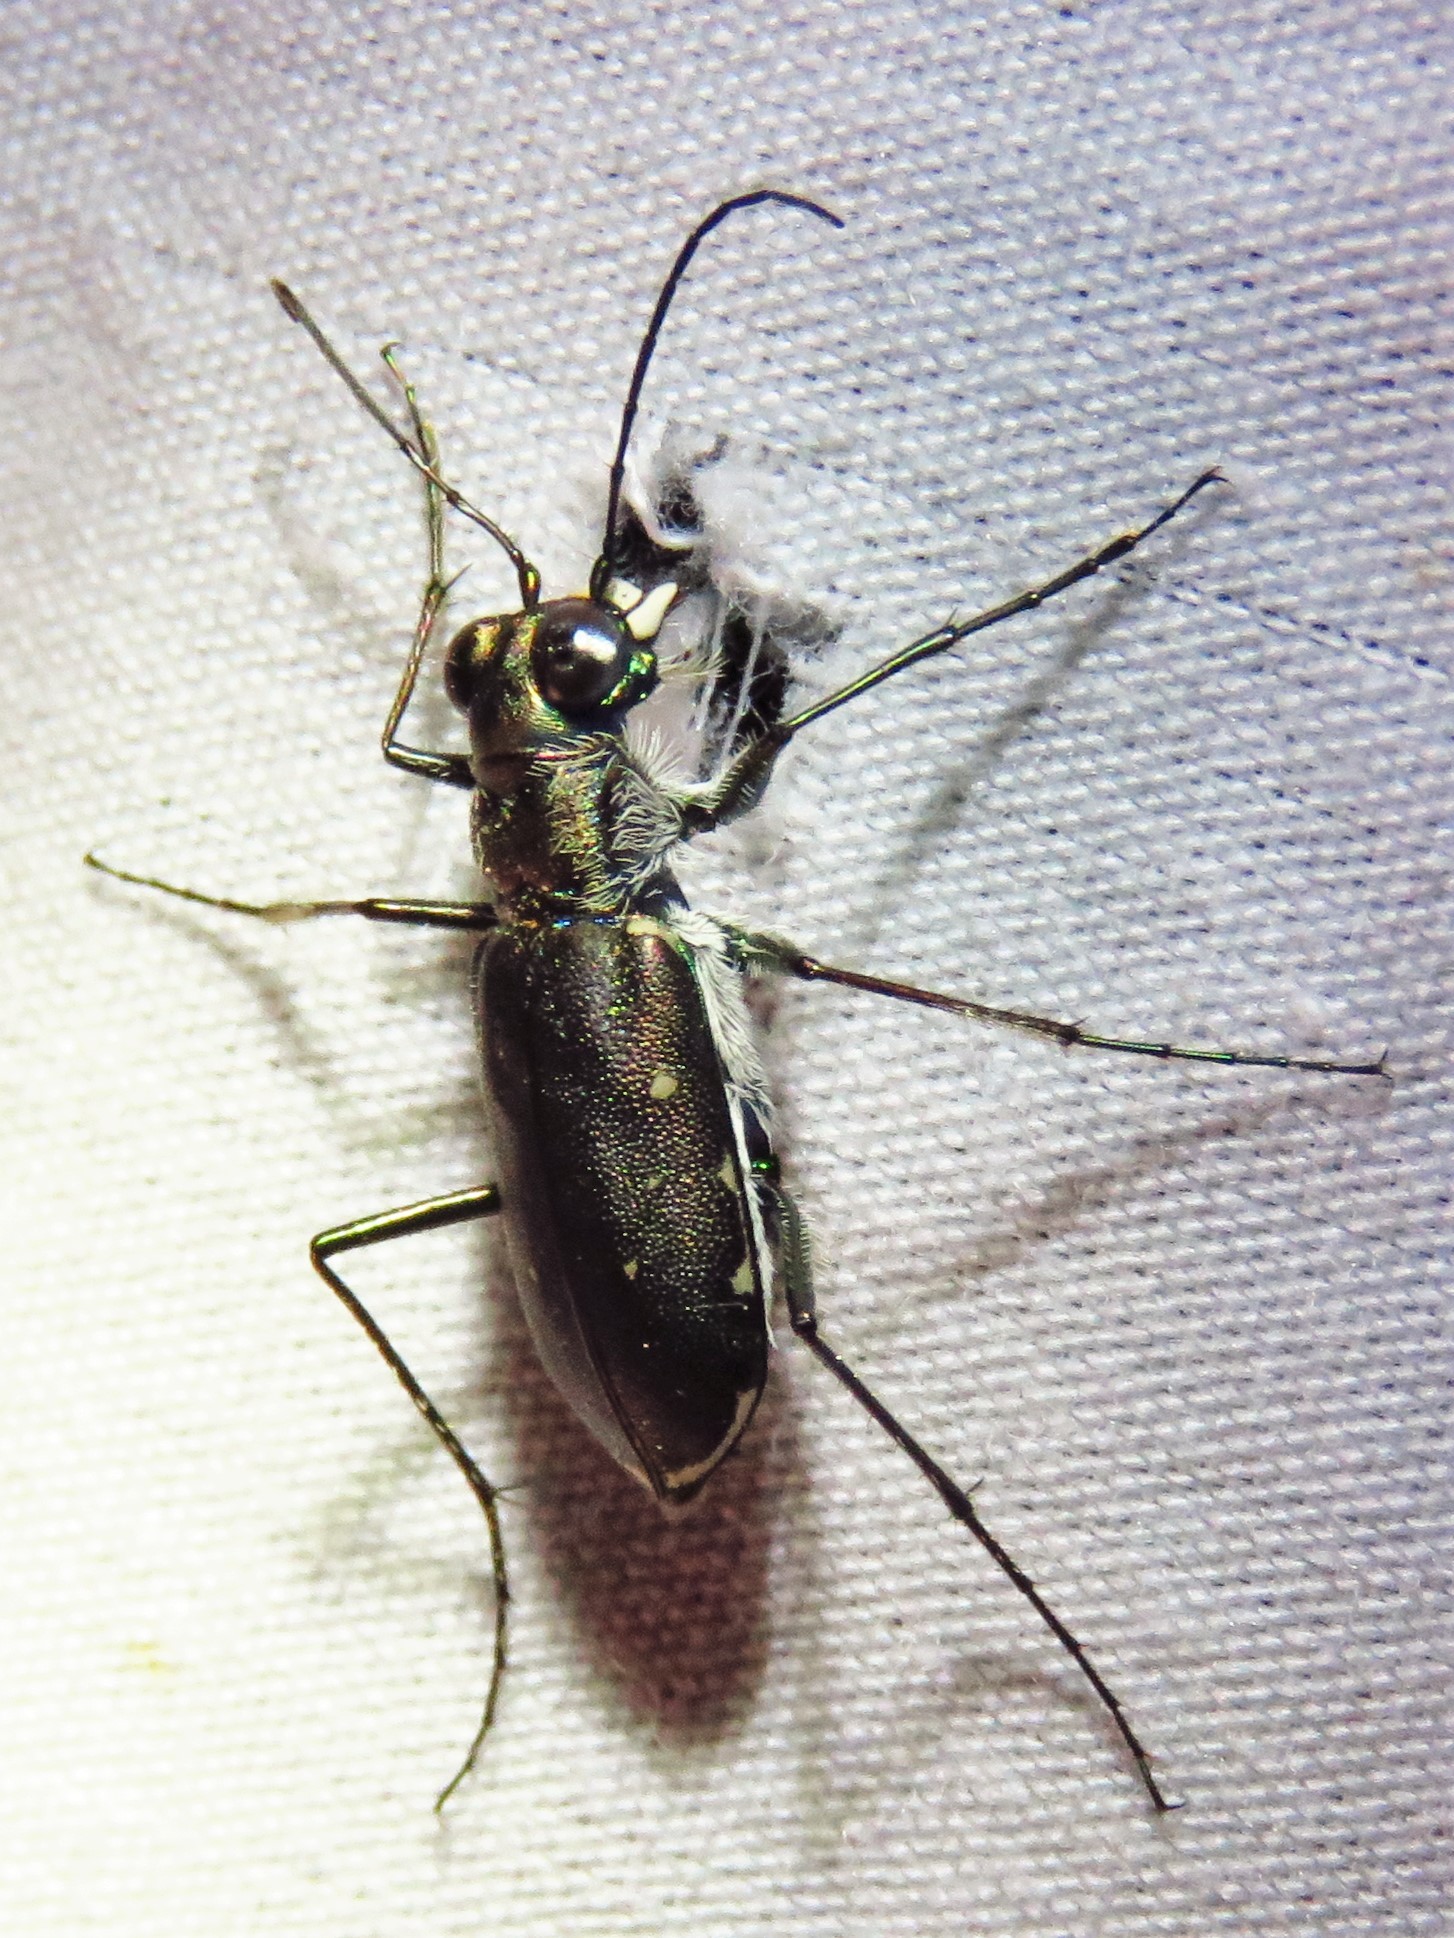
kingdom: Animalia
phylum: Arthropoda
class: Insecta
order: Coleoptera
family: Carabidae
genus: Cicindela
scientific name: Cicindela punctulata
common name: Punctured tiger beetle
